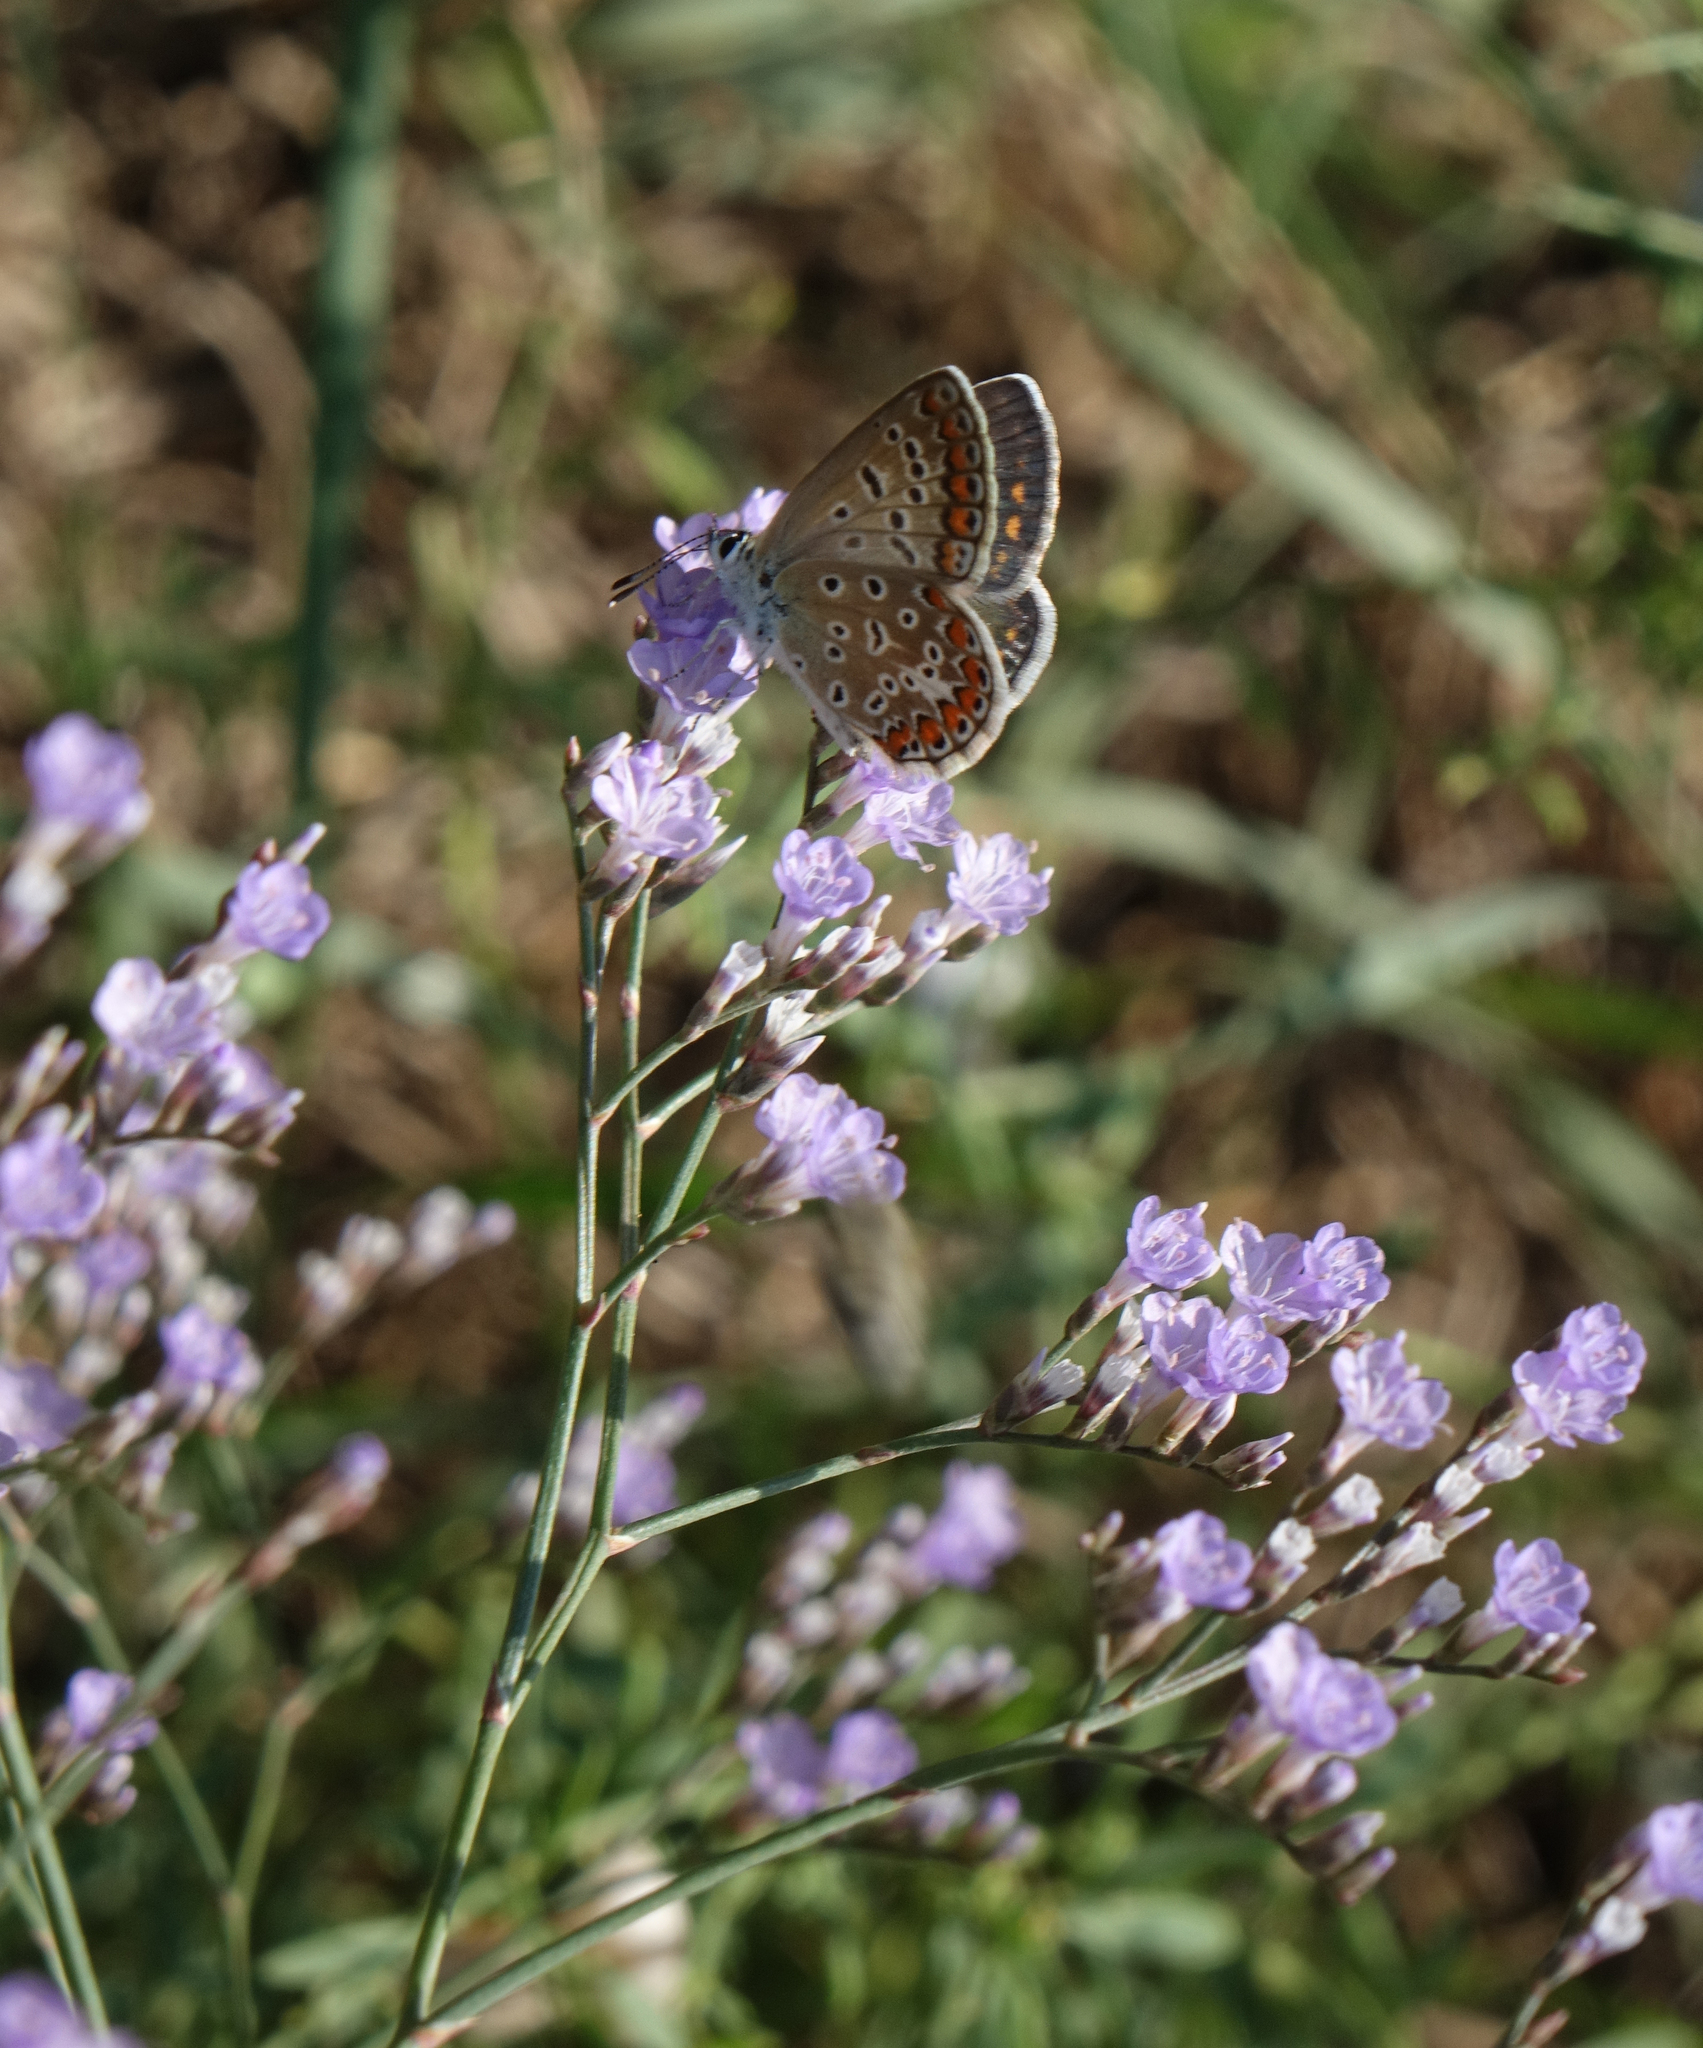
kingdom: Animalia
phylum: Arthropoda
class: Insecta
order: Lepidoptera
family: Lycaenidae
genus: Polyommatus
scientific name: Polyommatus icarus
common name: Common blue
